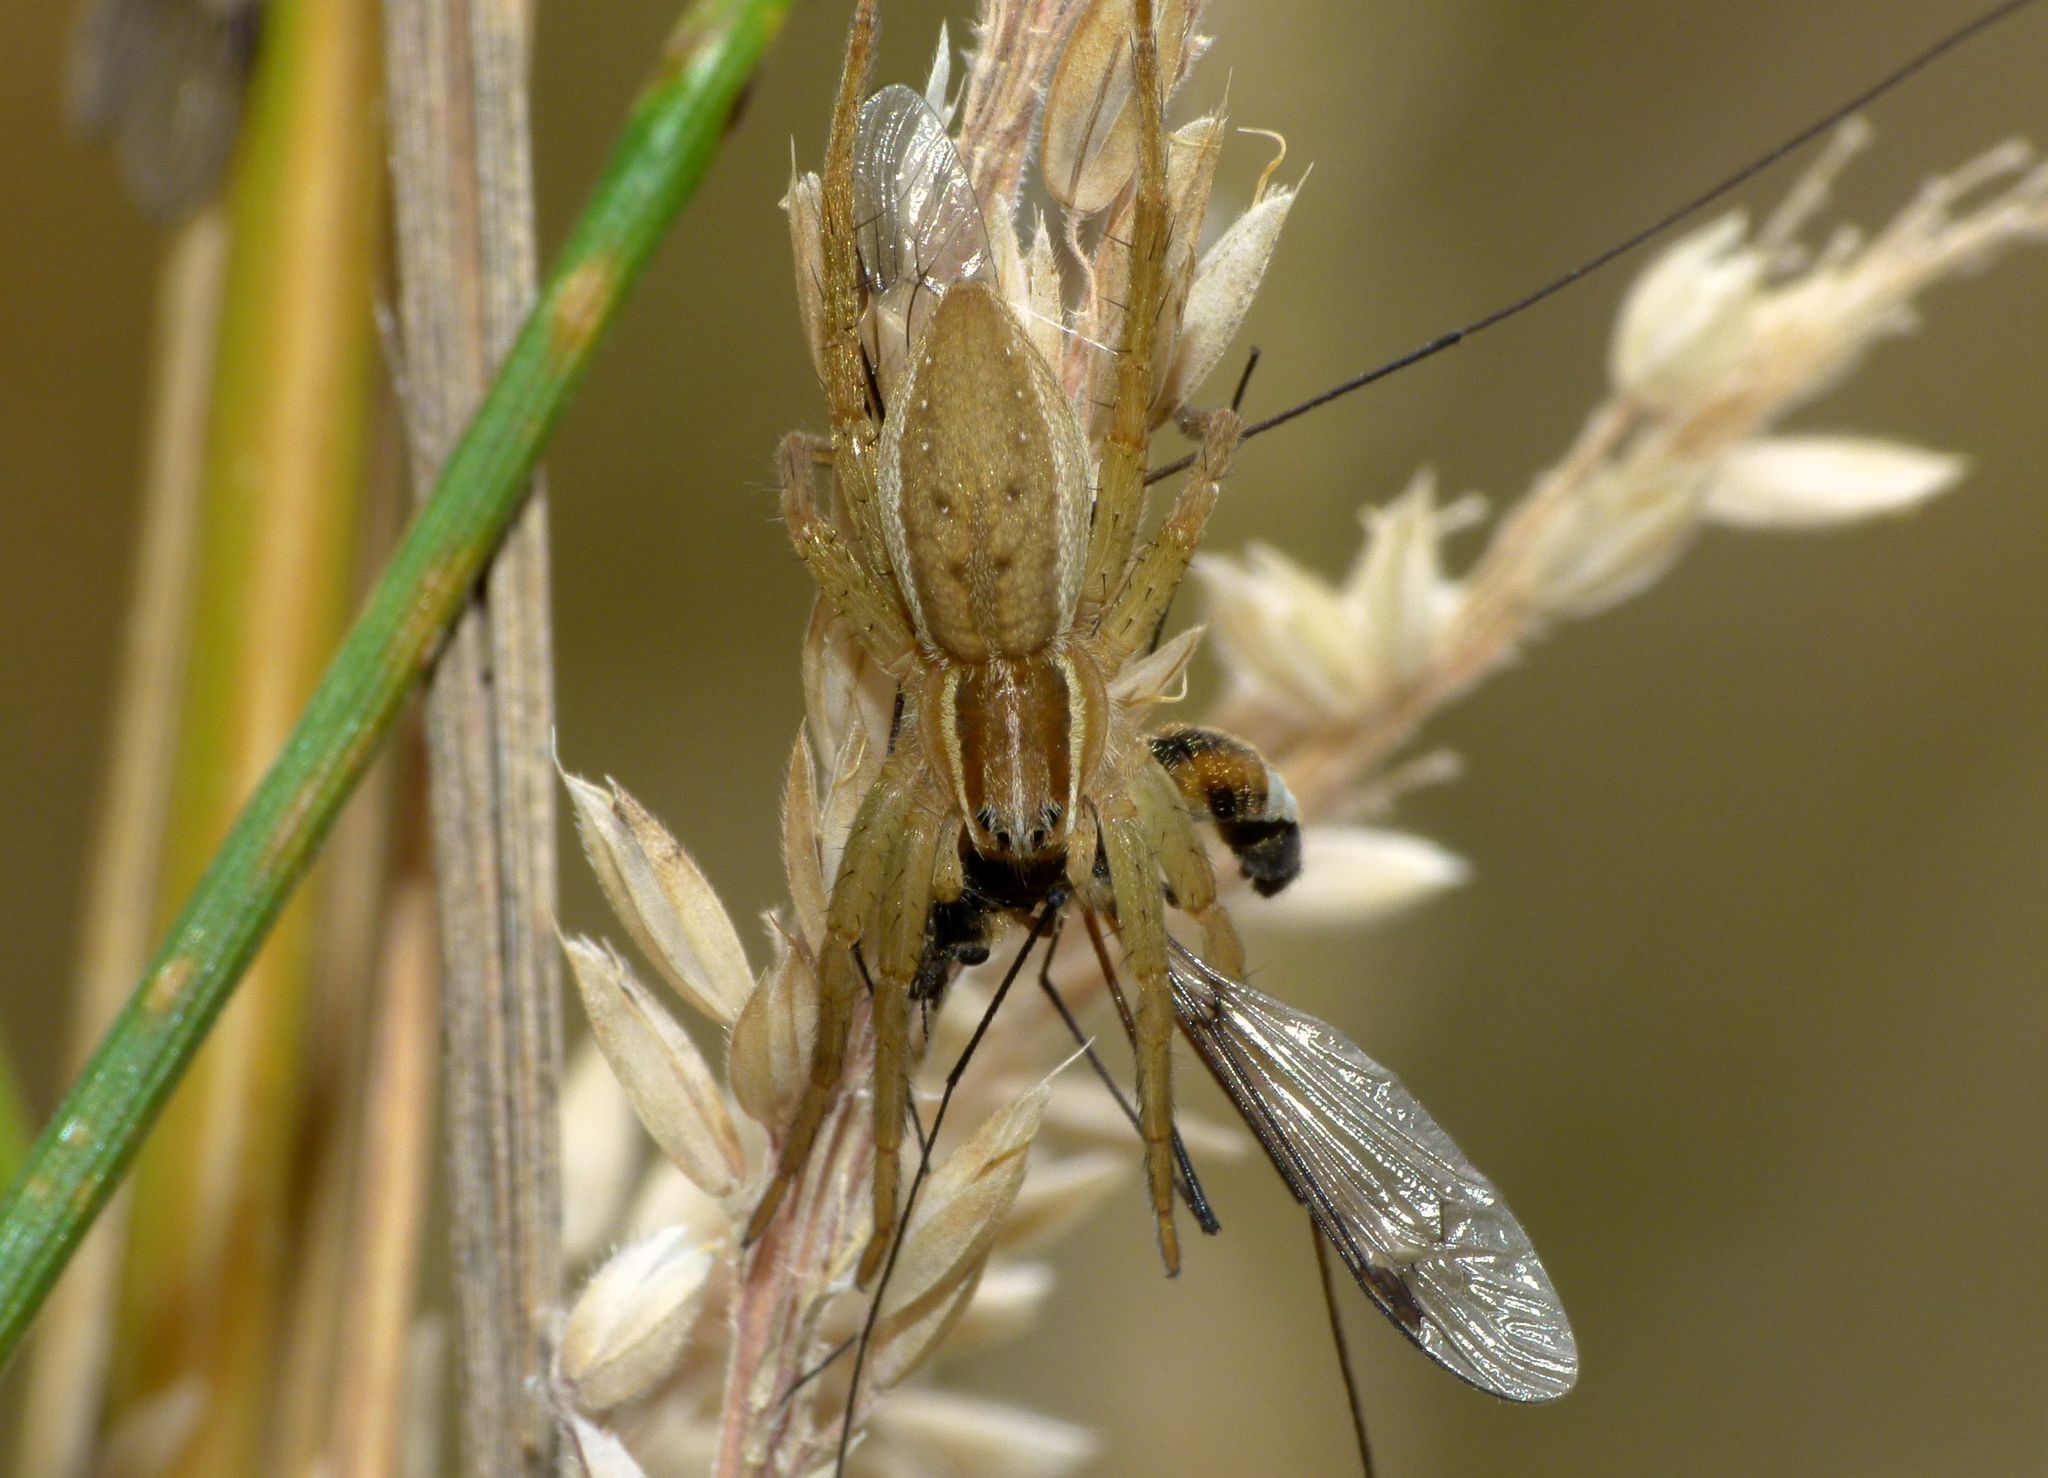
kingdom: Animalia
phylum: Arthropoda
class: Arachnida
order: Araneae
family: Pisauridae
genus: Dolomedes
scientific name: Dolomedes minor
